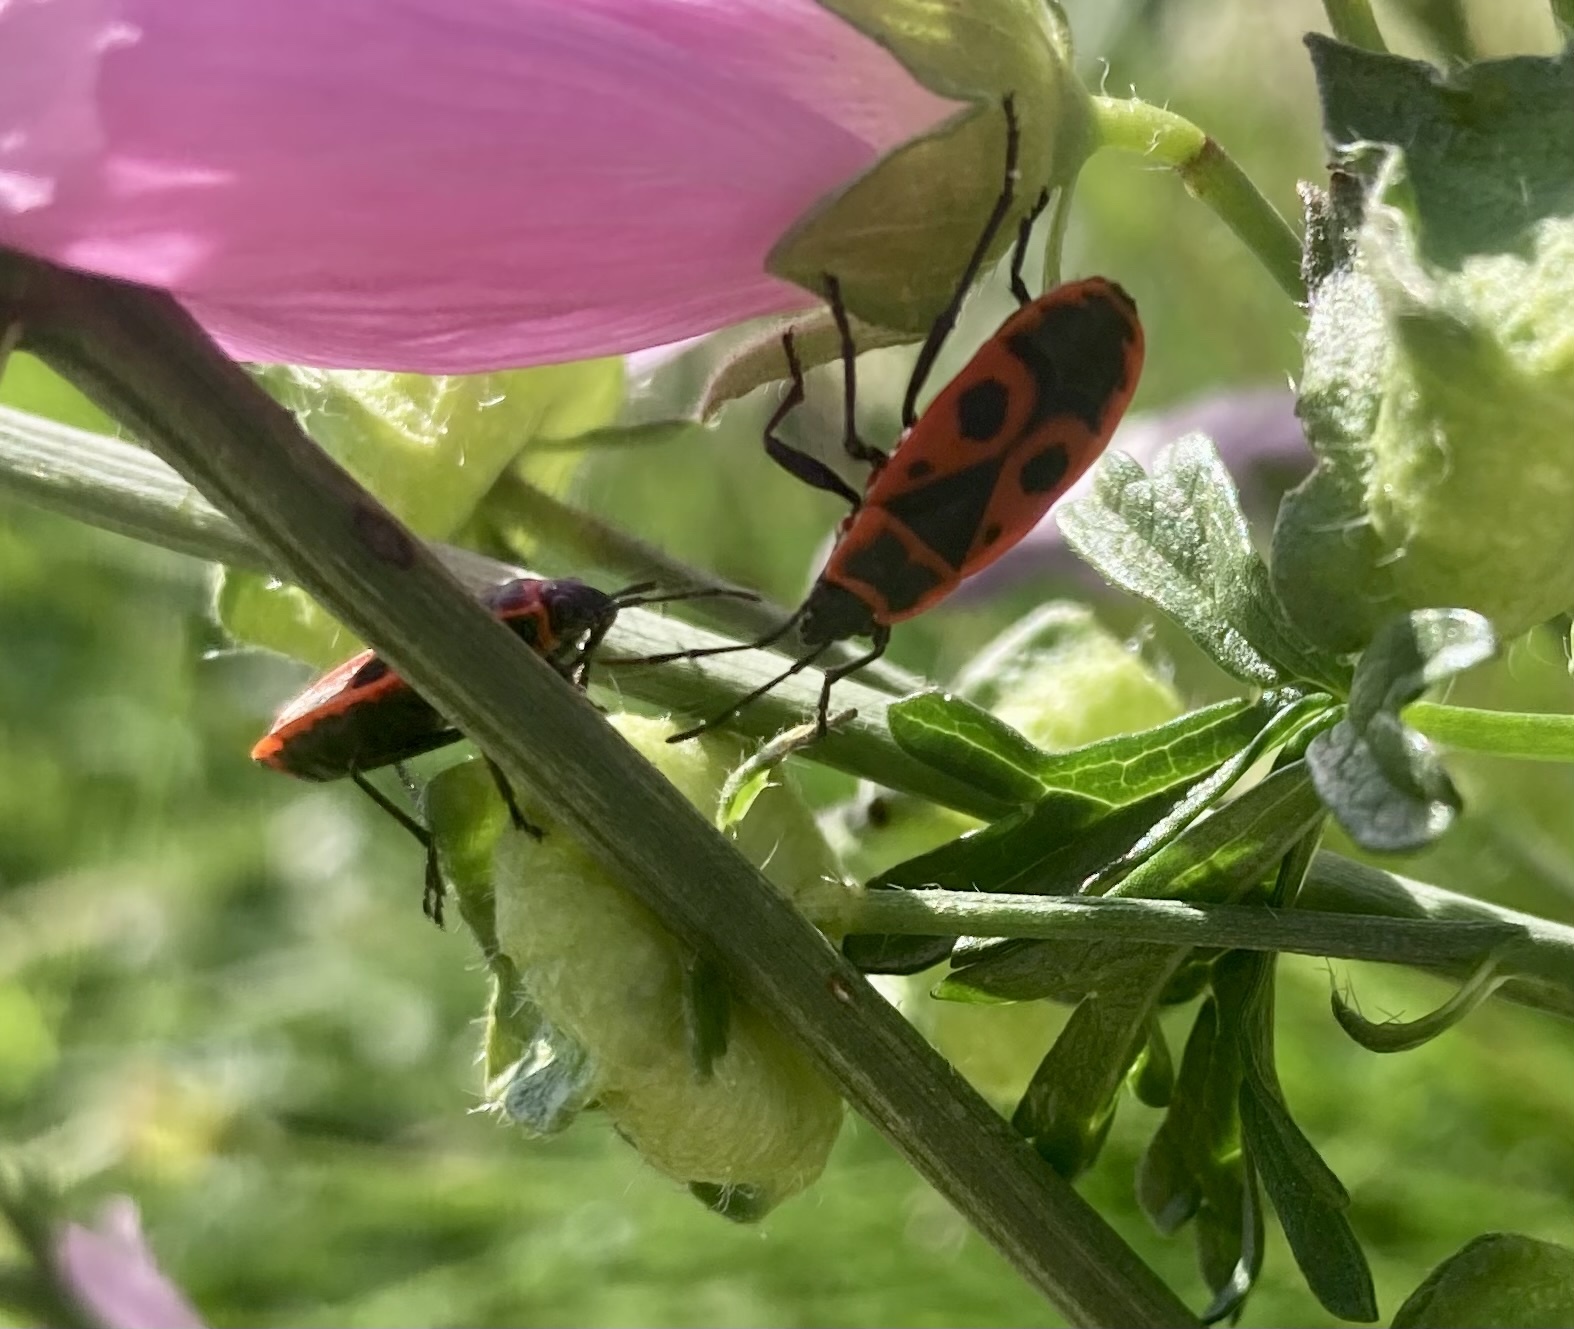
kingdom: Animalia
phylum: Arthropoda
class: Insecta
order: Hemiptera
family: Pyrrhocoridae
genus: Pyrrhocoris
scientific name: Pyrrhocoris apterus
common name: Firebug
